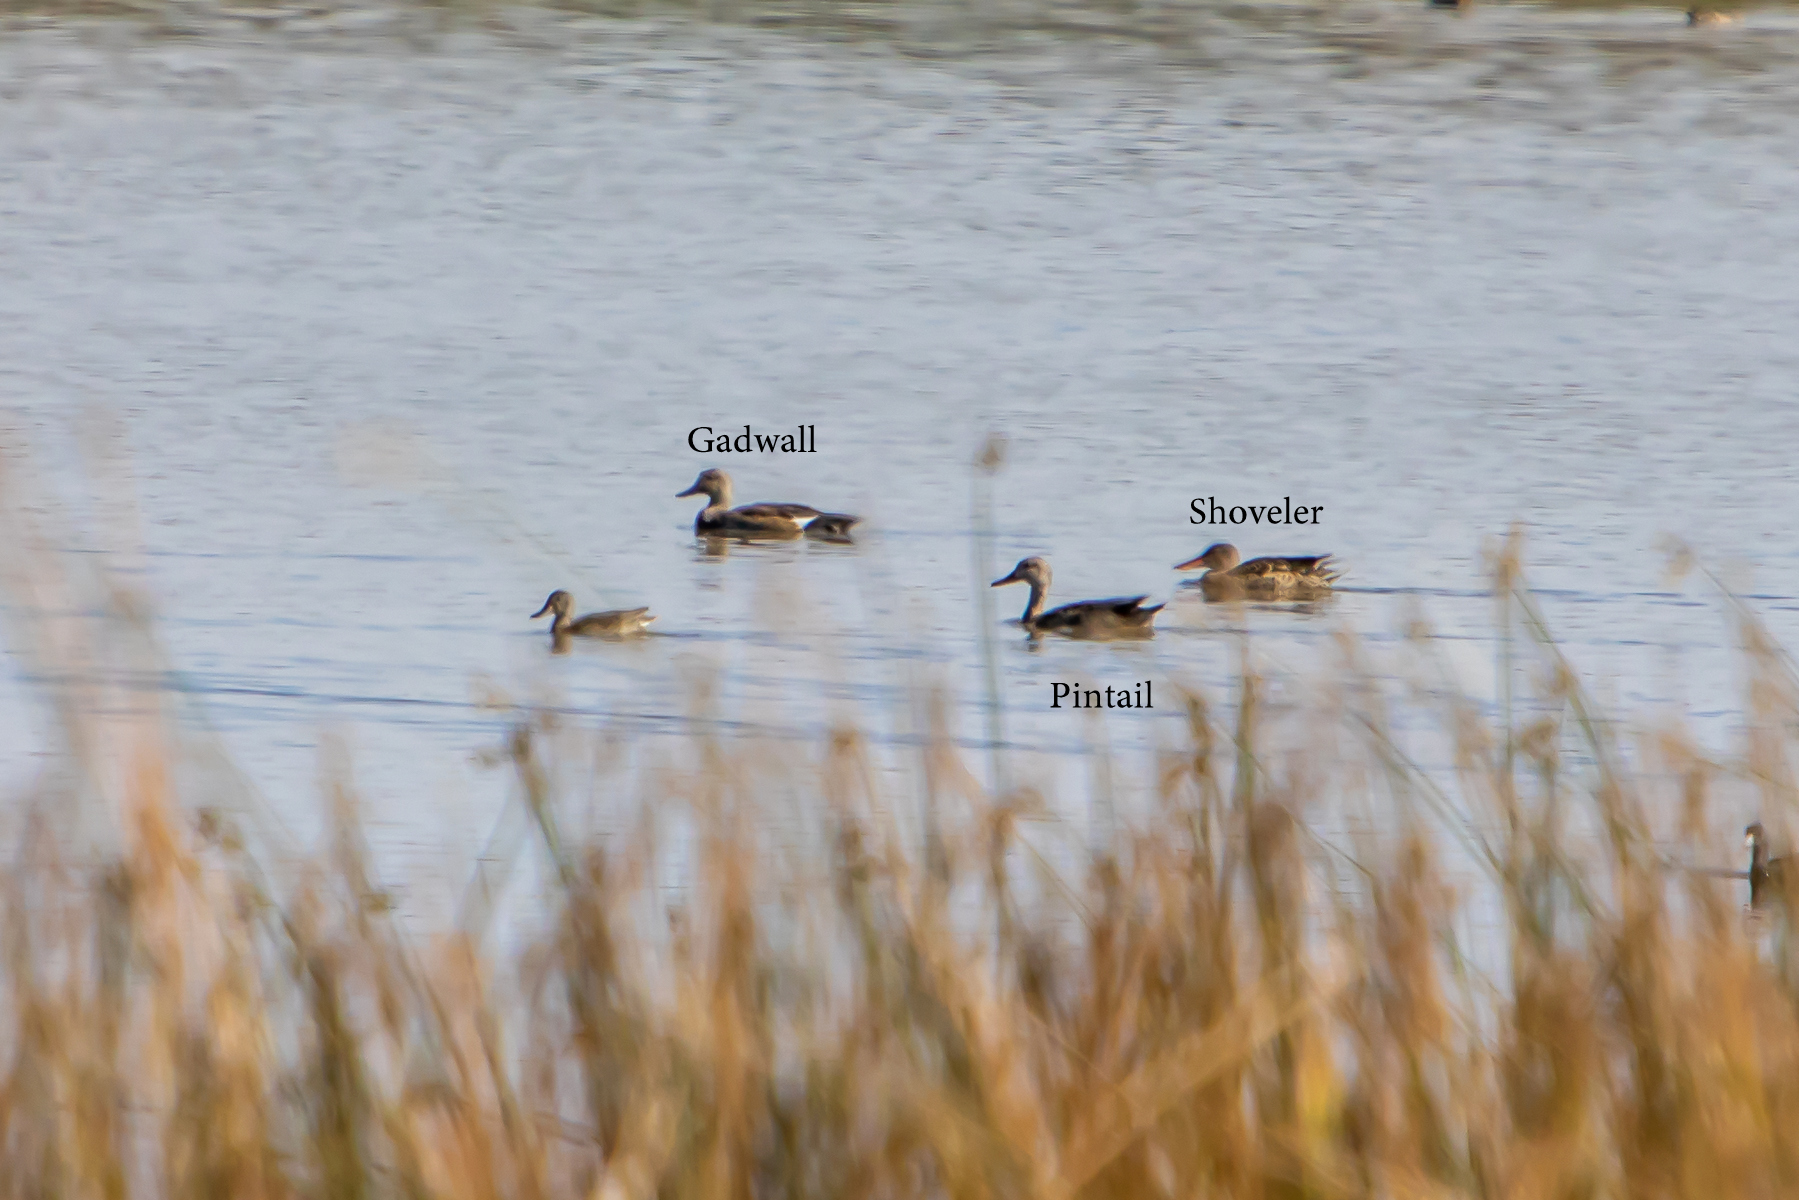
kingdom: Animalia
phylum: Chordata
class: Aves
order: Anseriformes
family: Anatidae
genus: Anas
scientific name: Anas acuta
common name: Northern pintail
